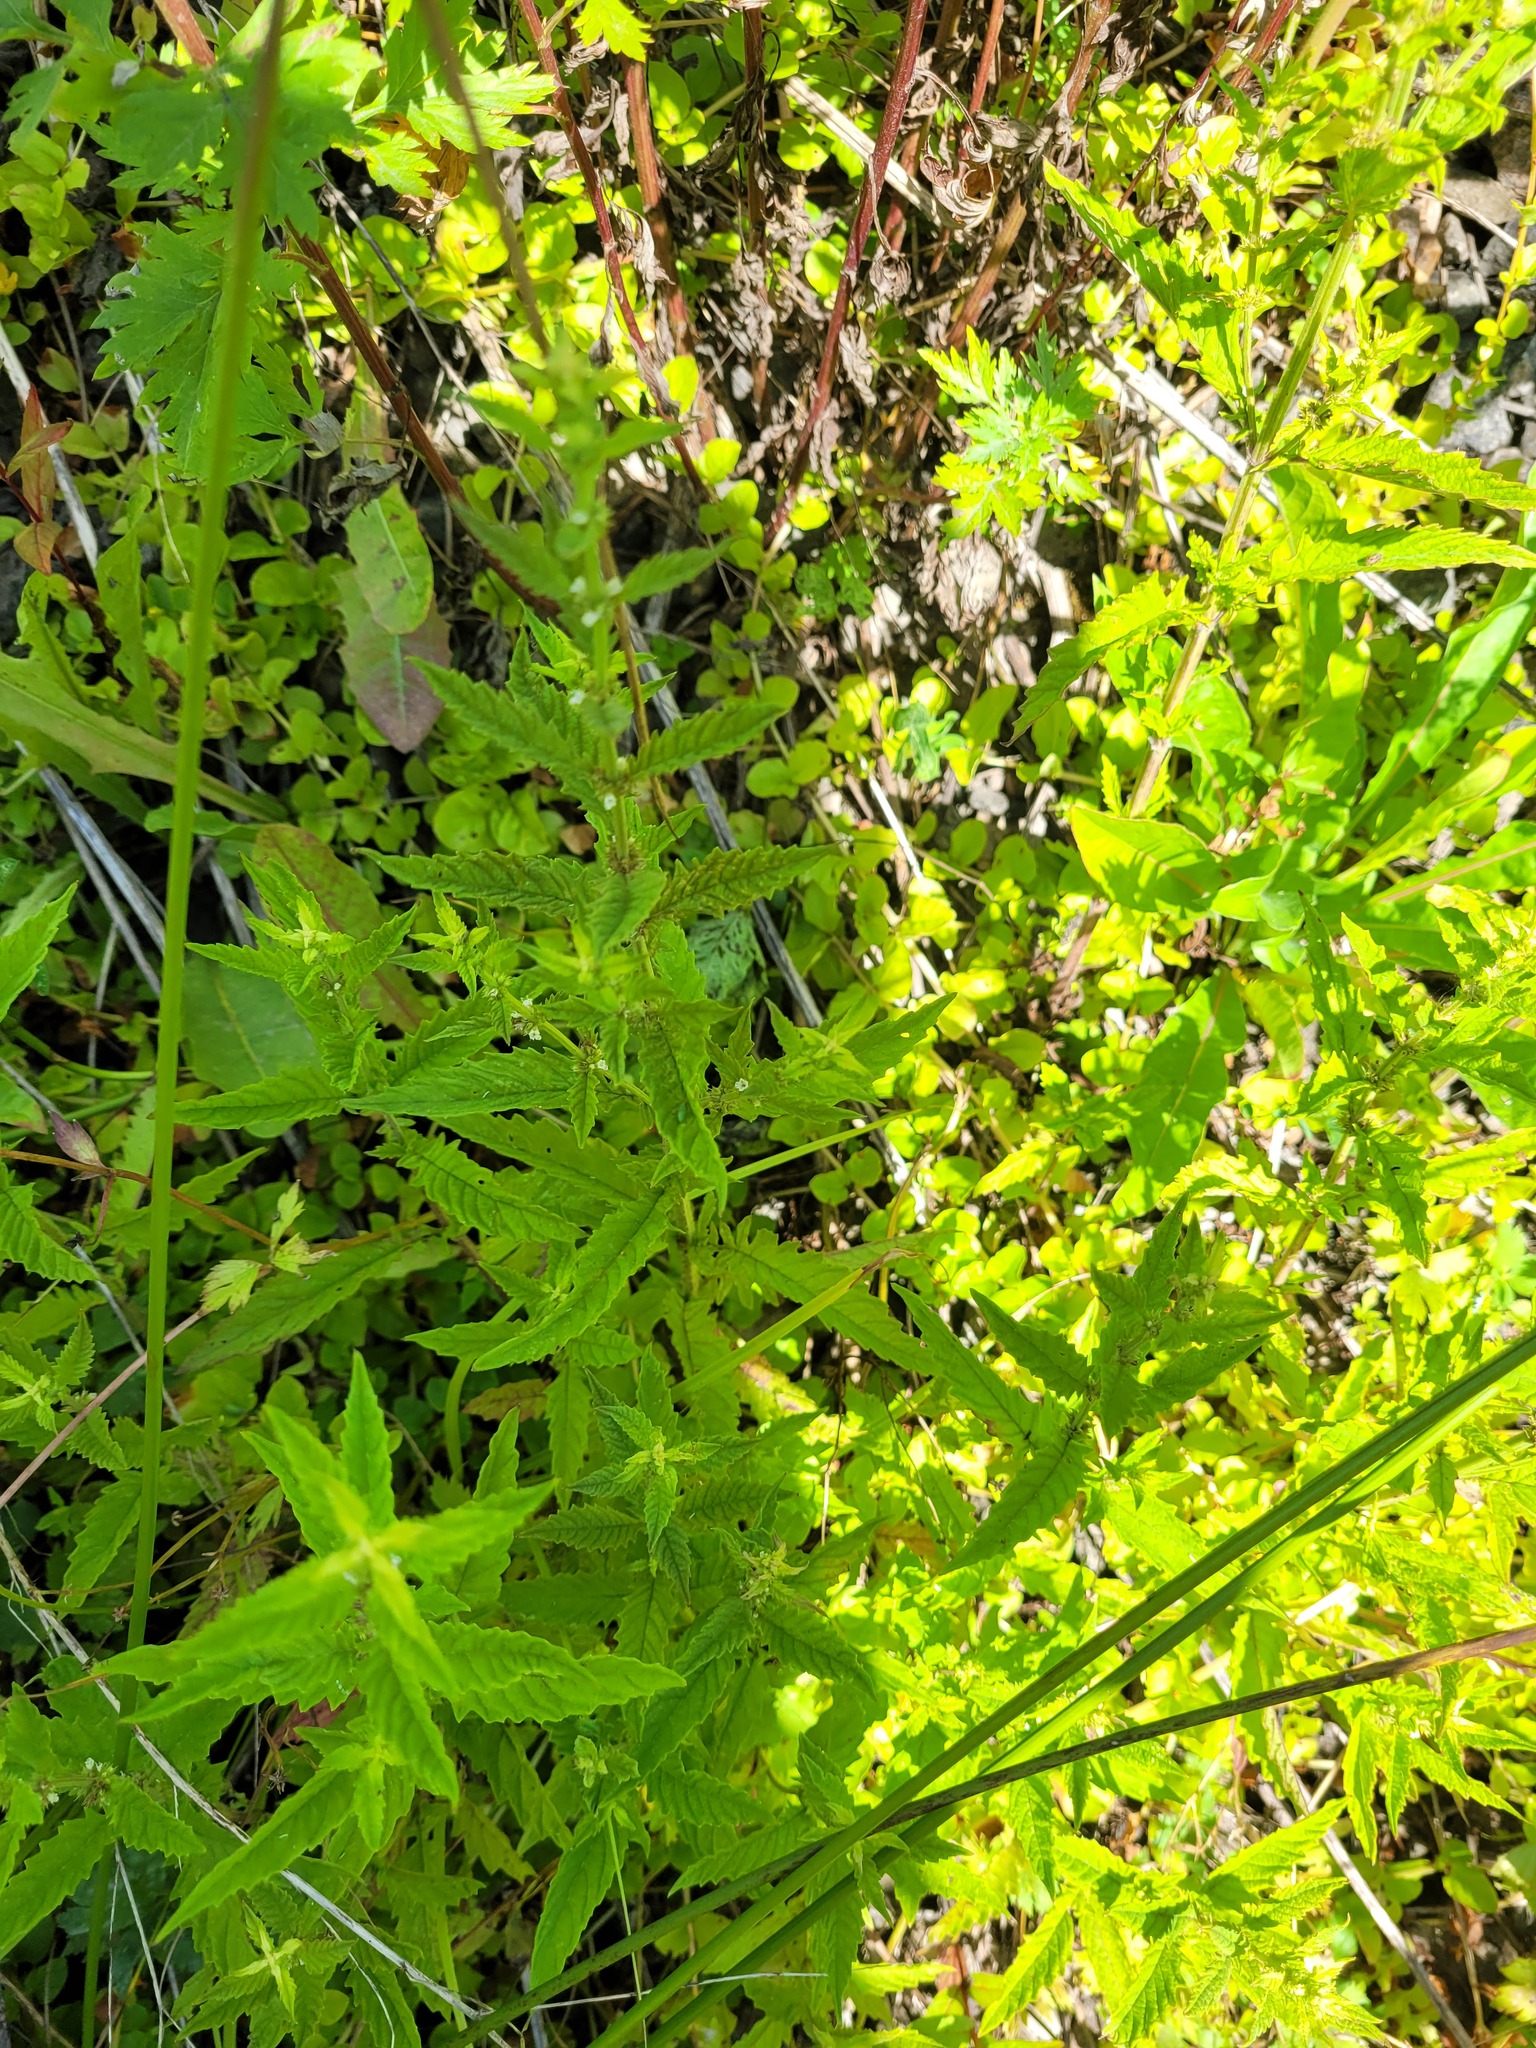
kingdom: Plantae
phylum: Tracheophyta
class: Magnoliopsida
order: Lamiales
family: Lamiaceae
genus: Lycopus
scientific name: Lycopus europaeus
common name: European bugleweed
